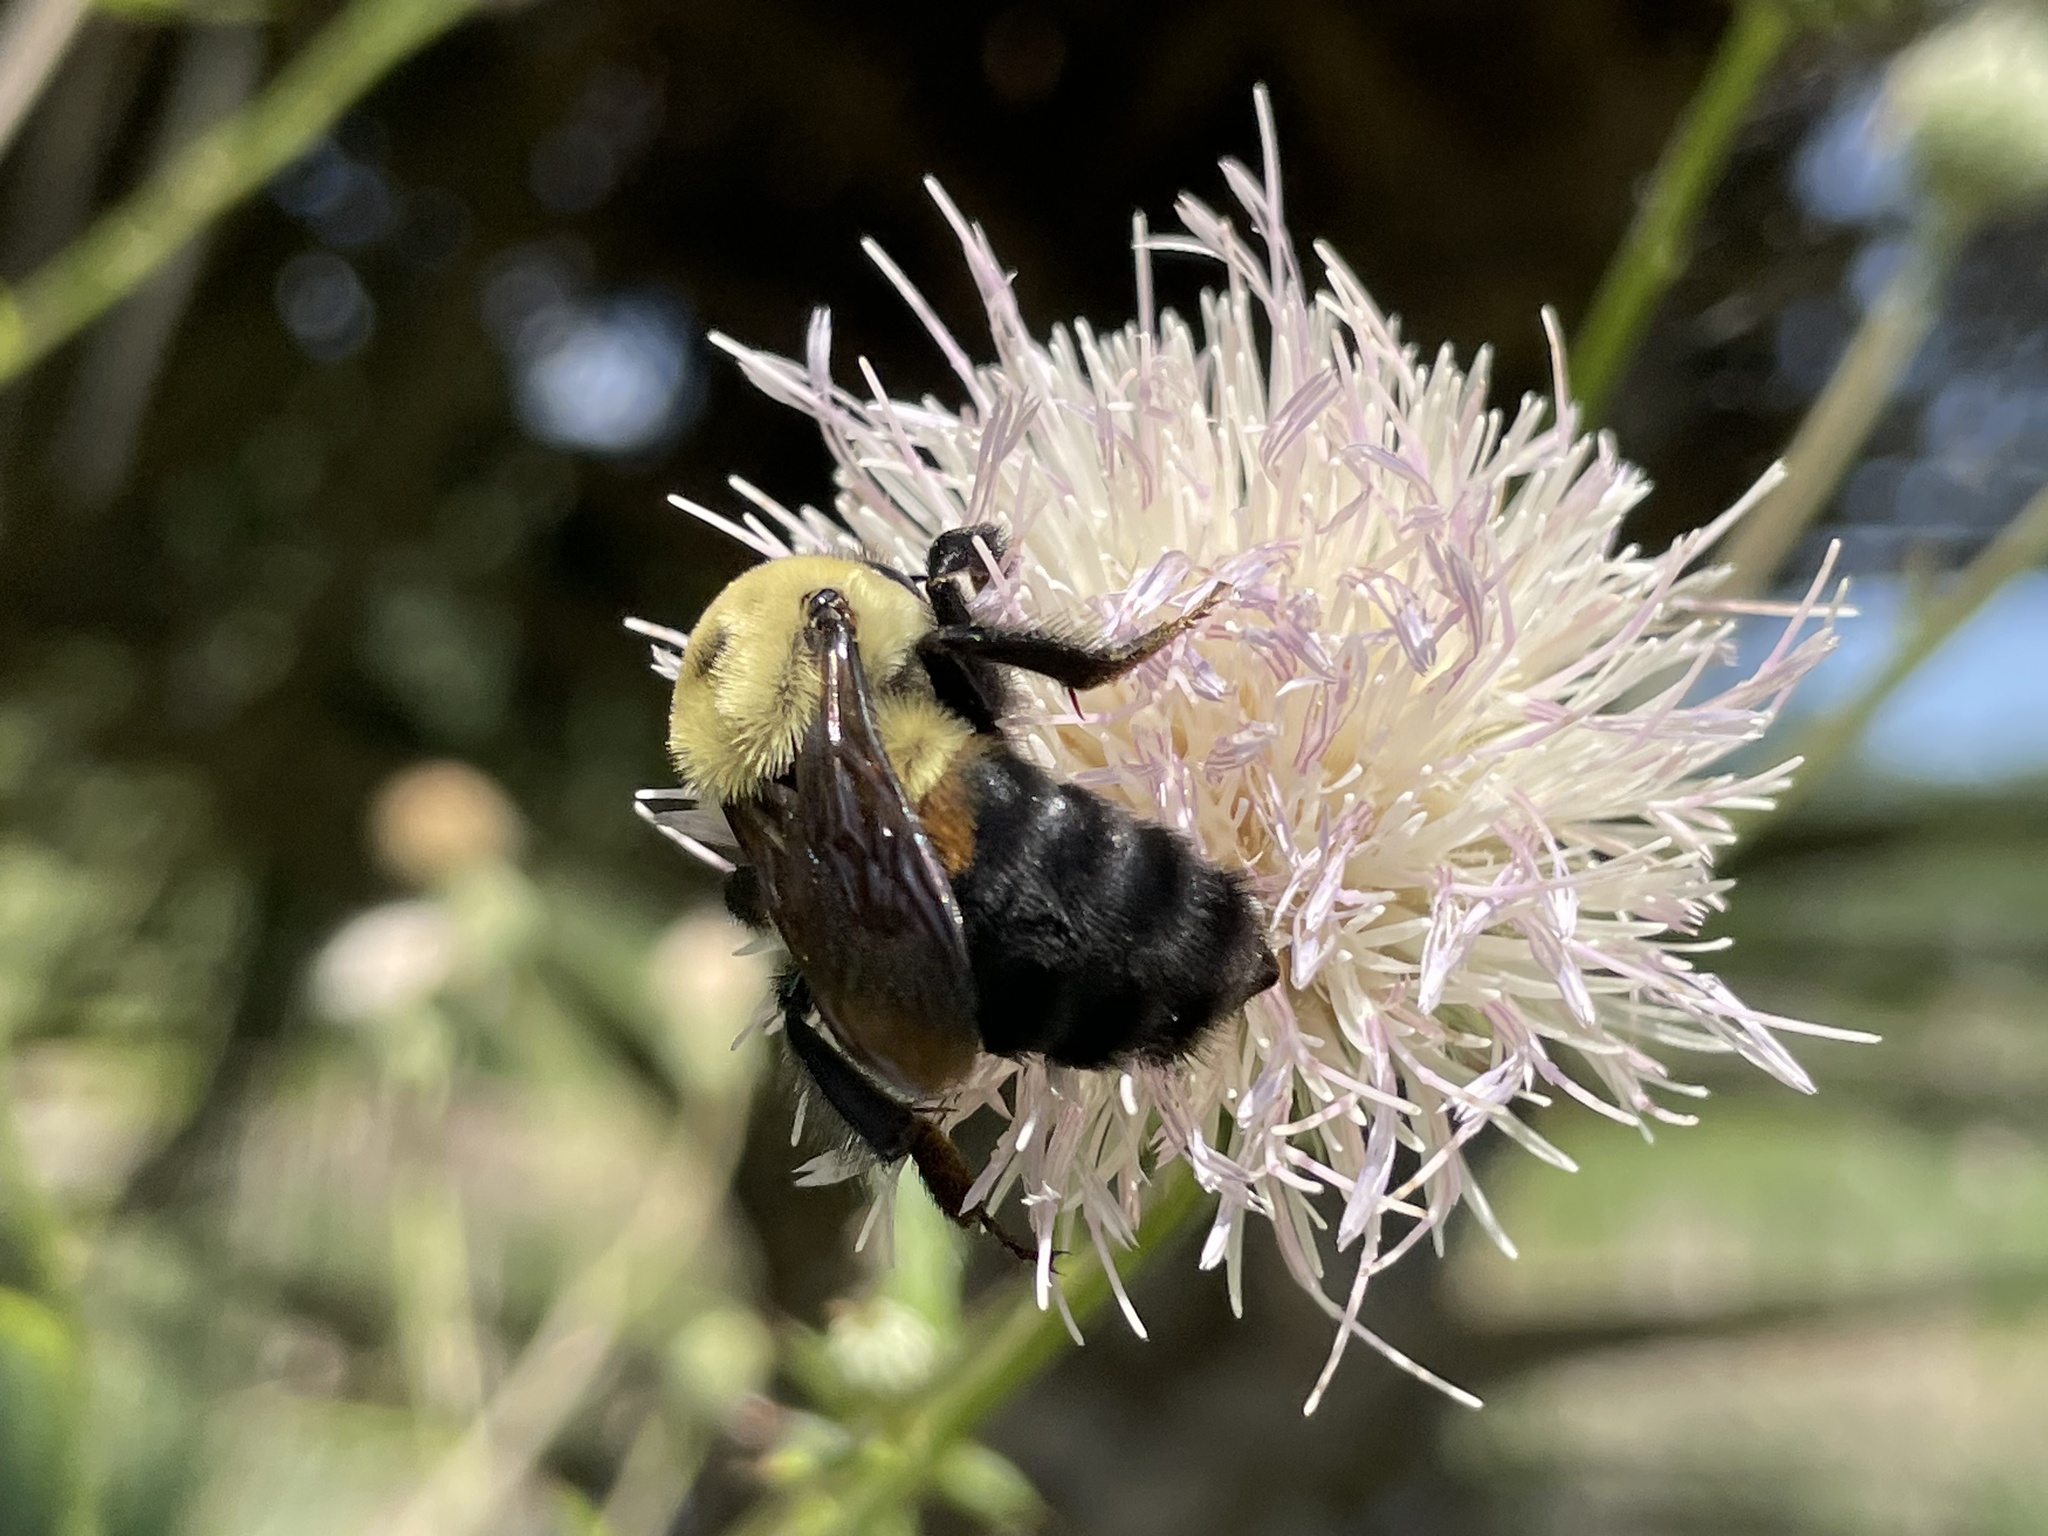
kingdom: Animalia
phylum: Arthropoda
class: Insecta
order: Hymenoptera
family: Apidae
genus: Bombus
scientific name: Bombus griseocollis
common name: Brown-belted bumble bee
